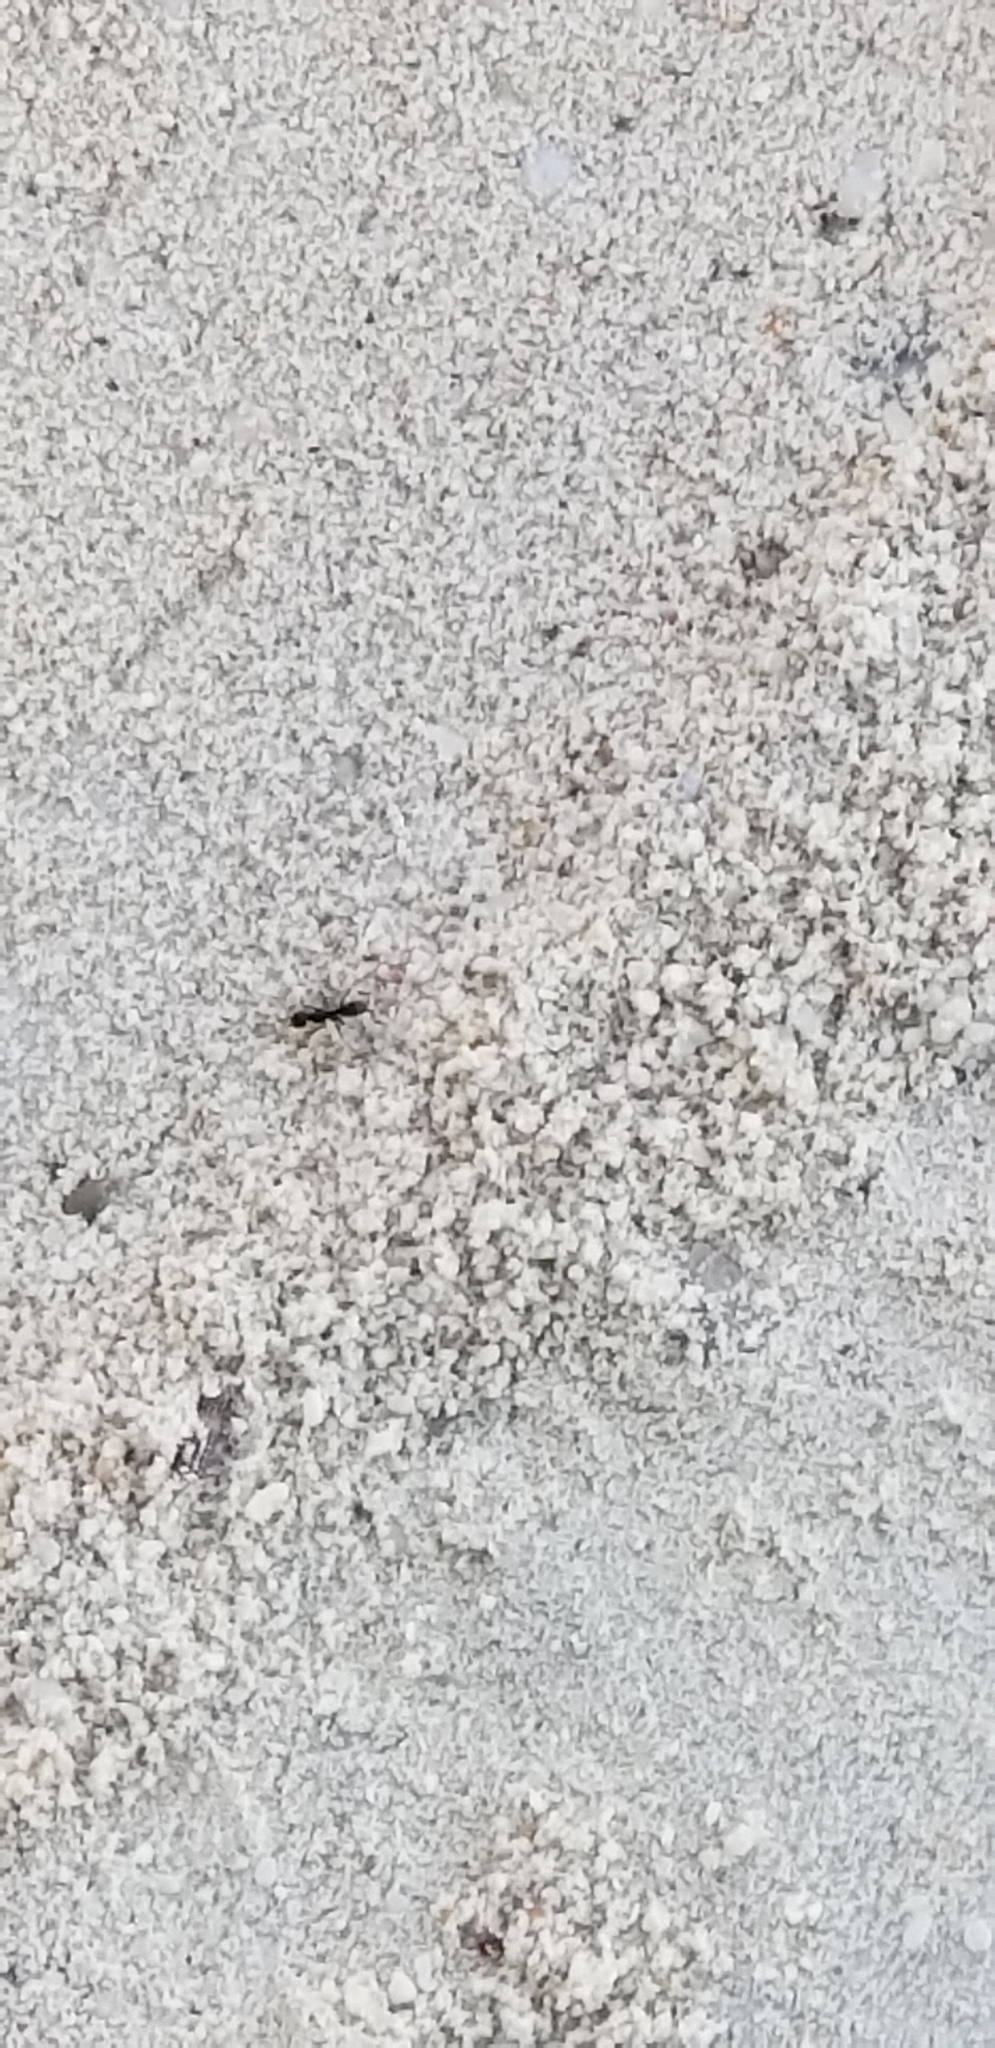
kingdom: Animalia
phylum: Arthropoda
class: Insecta
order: Hymenoptera
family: Formicidae
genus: Dorymyrmex
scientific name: Dorymyrmex
